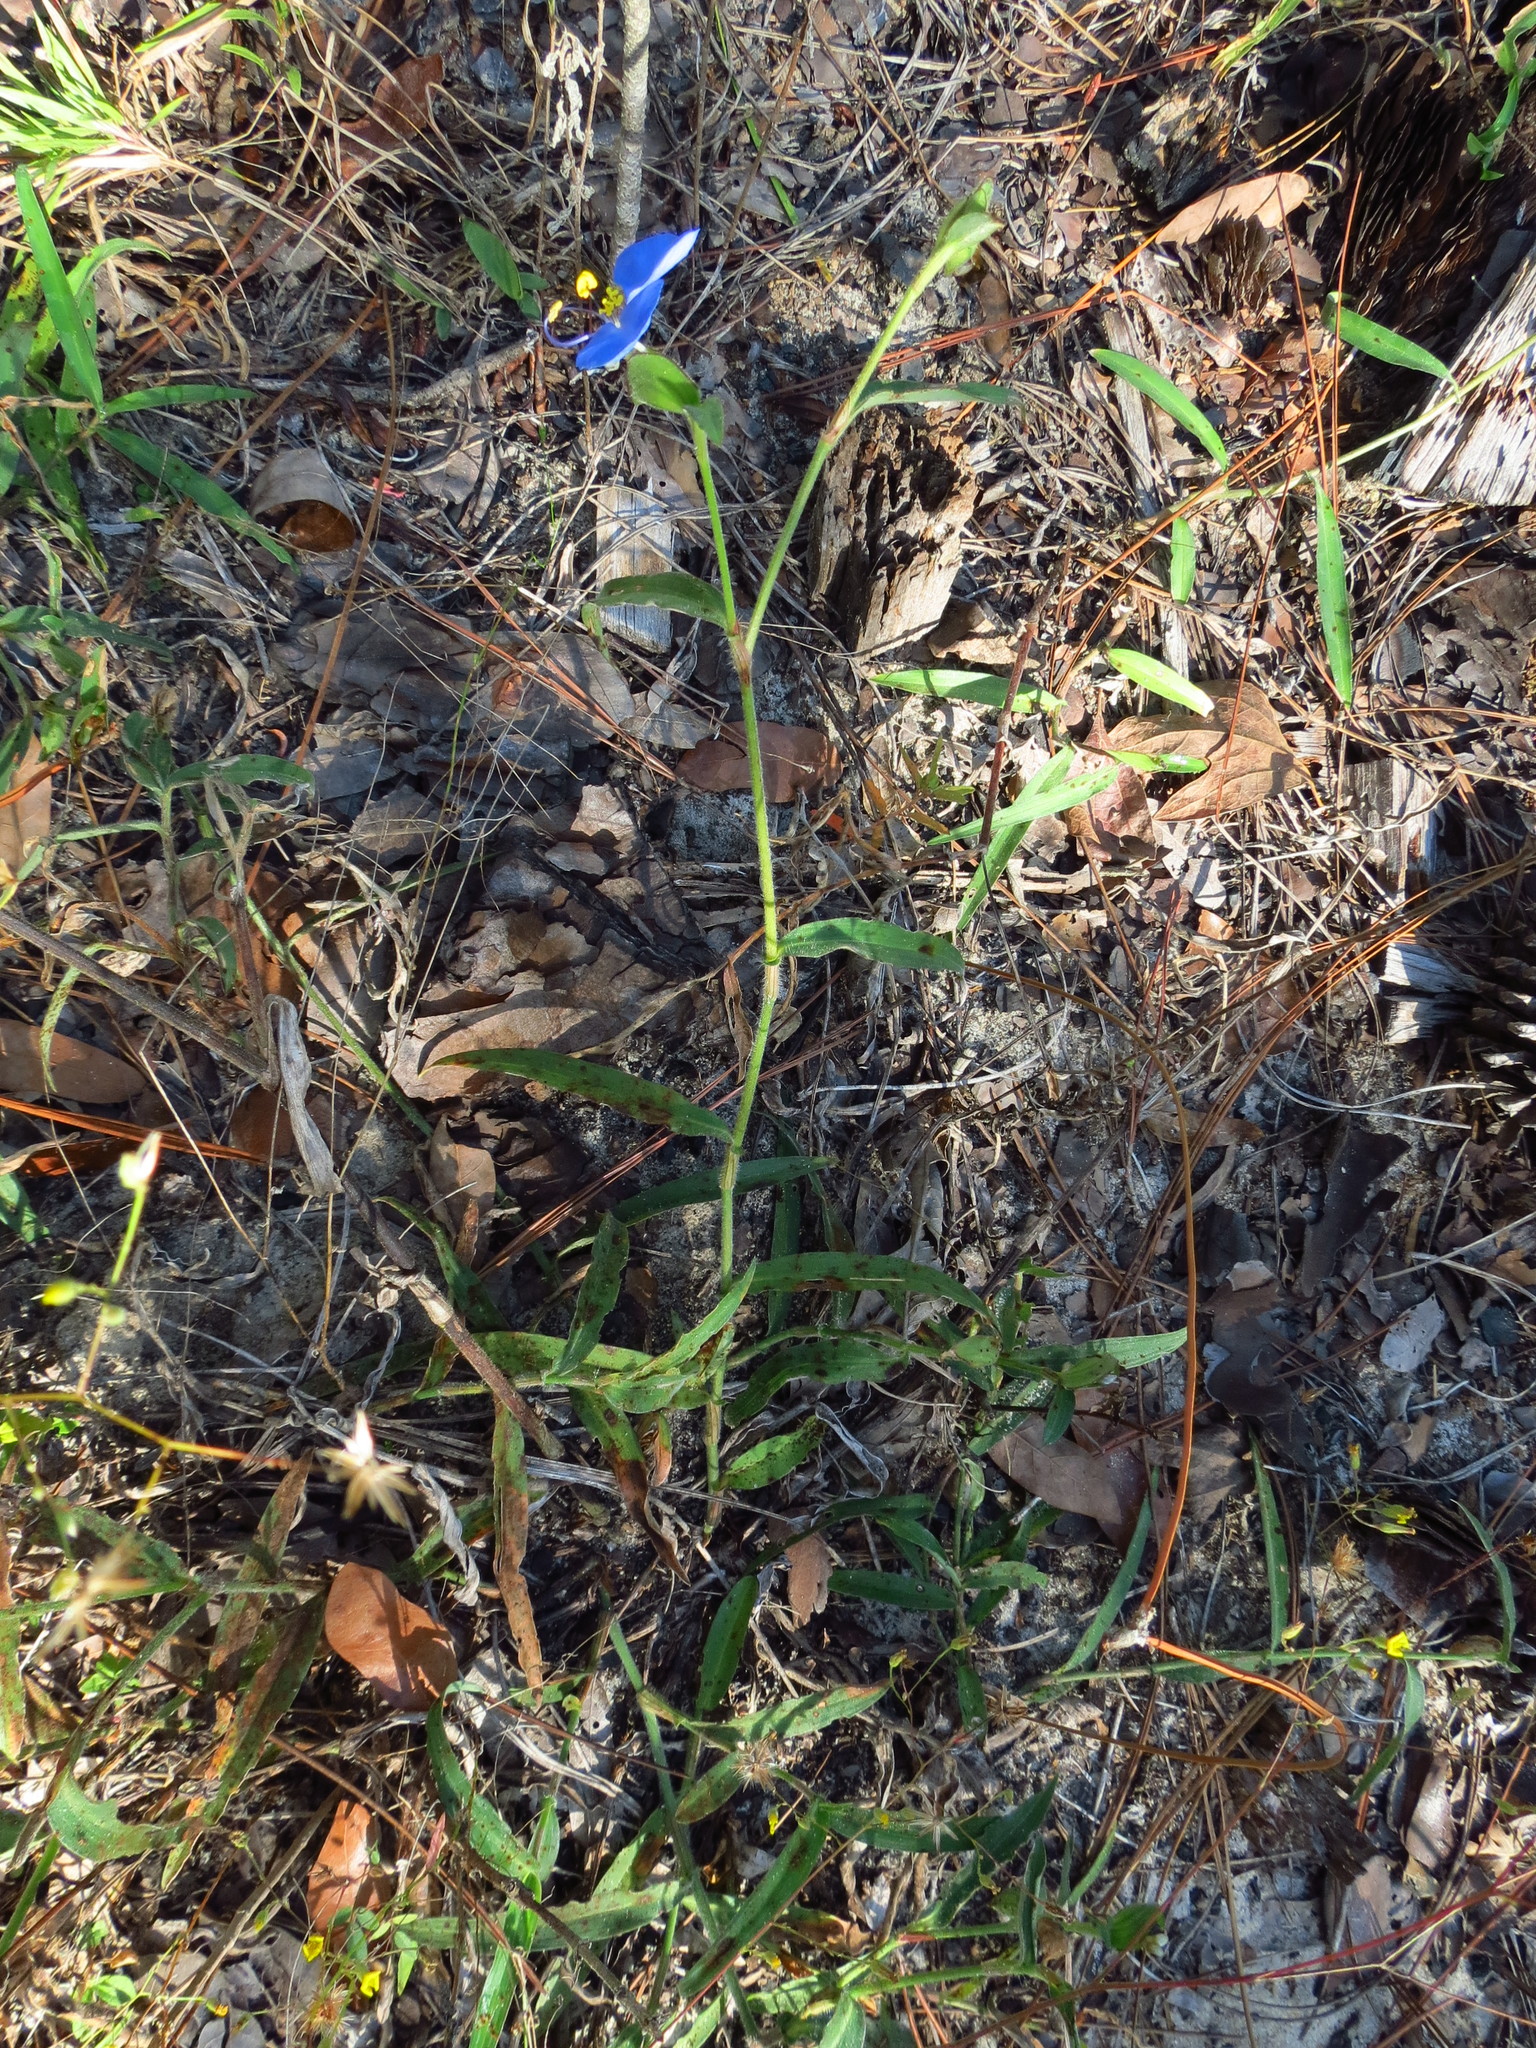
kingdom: Plantae
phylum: Tracheophyta
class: Liliopsida
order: Commelinales
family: Commelinaceae
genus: Commelina
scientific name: Commelina erecta
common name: Blousel blommetjie
